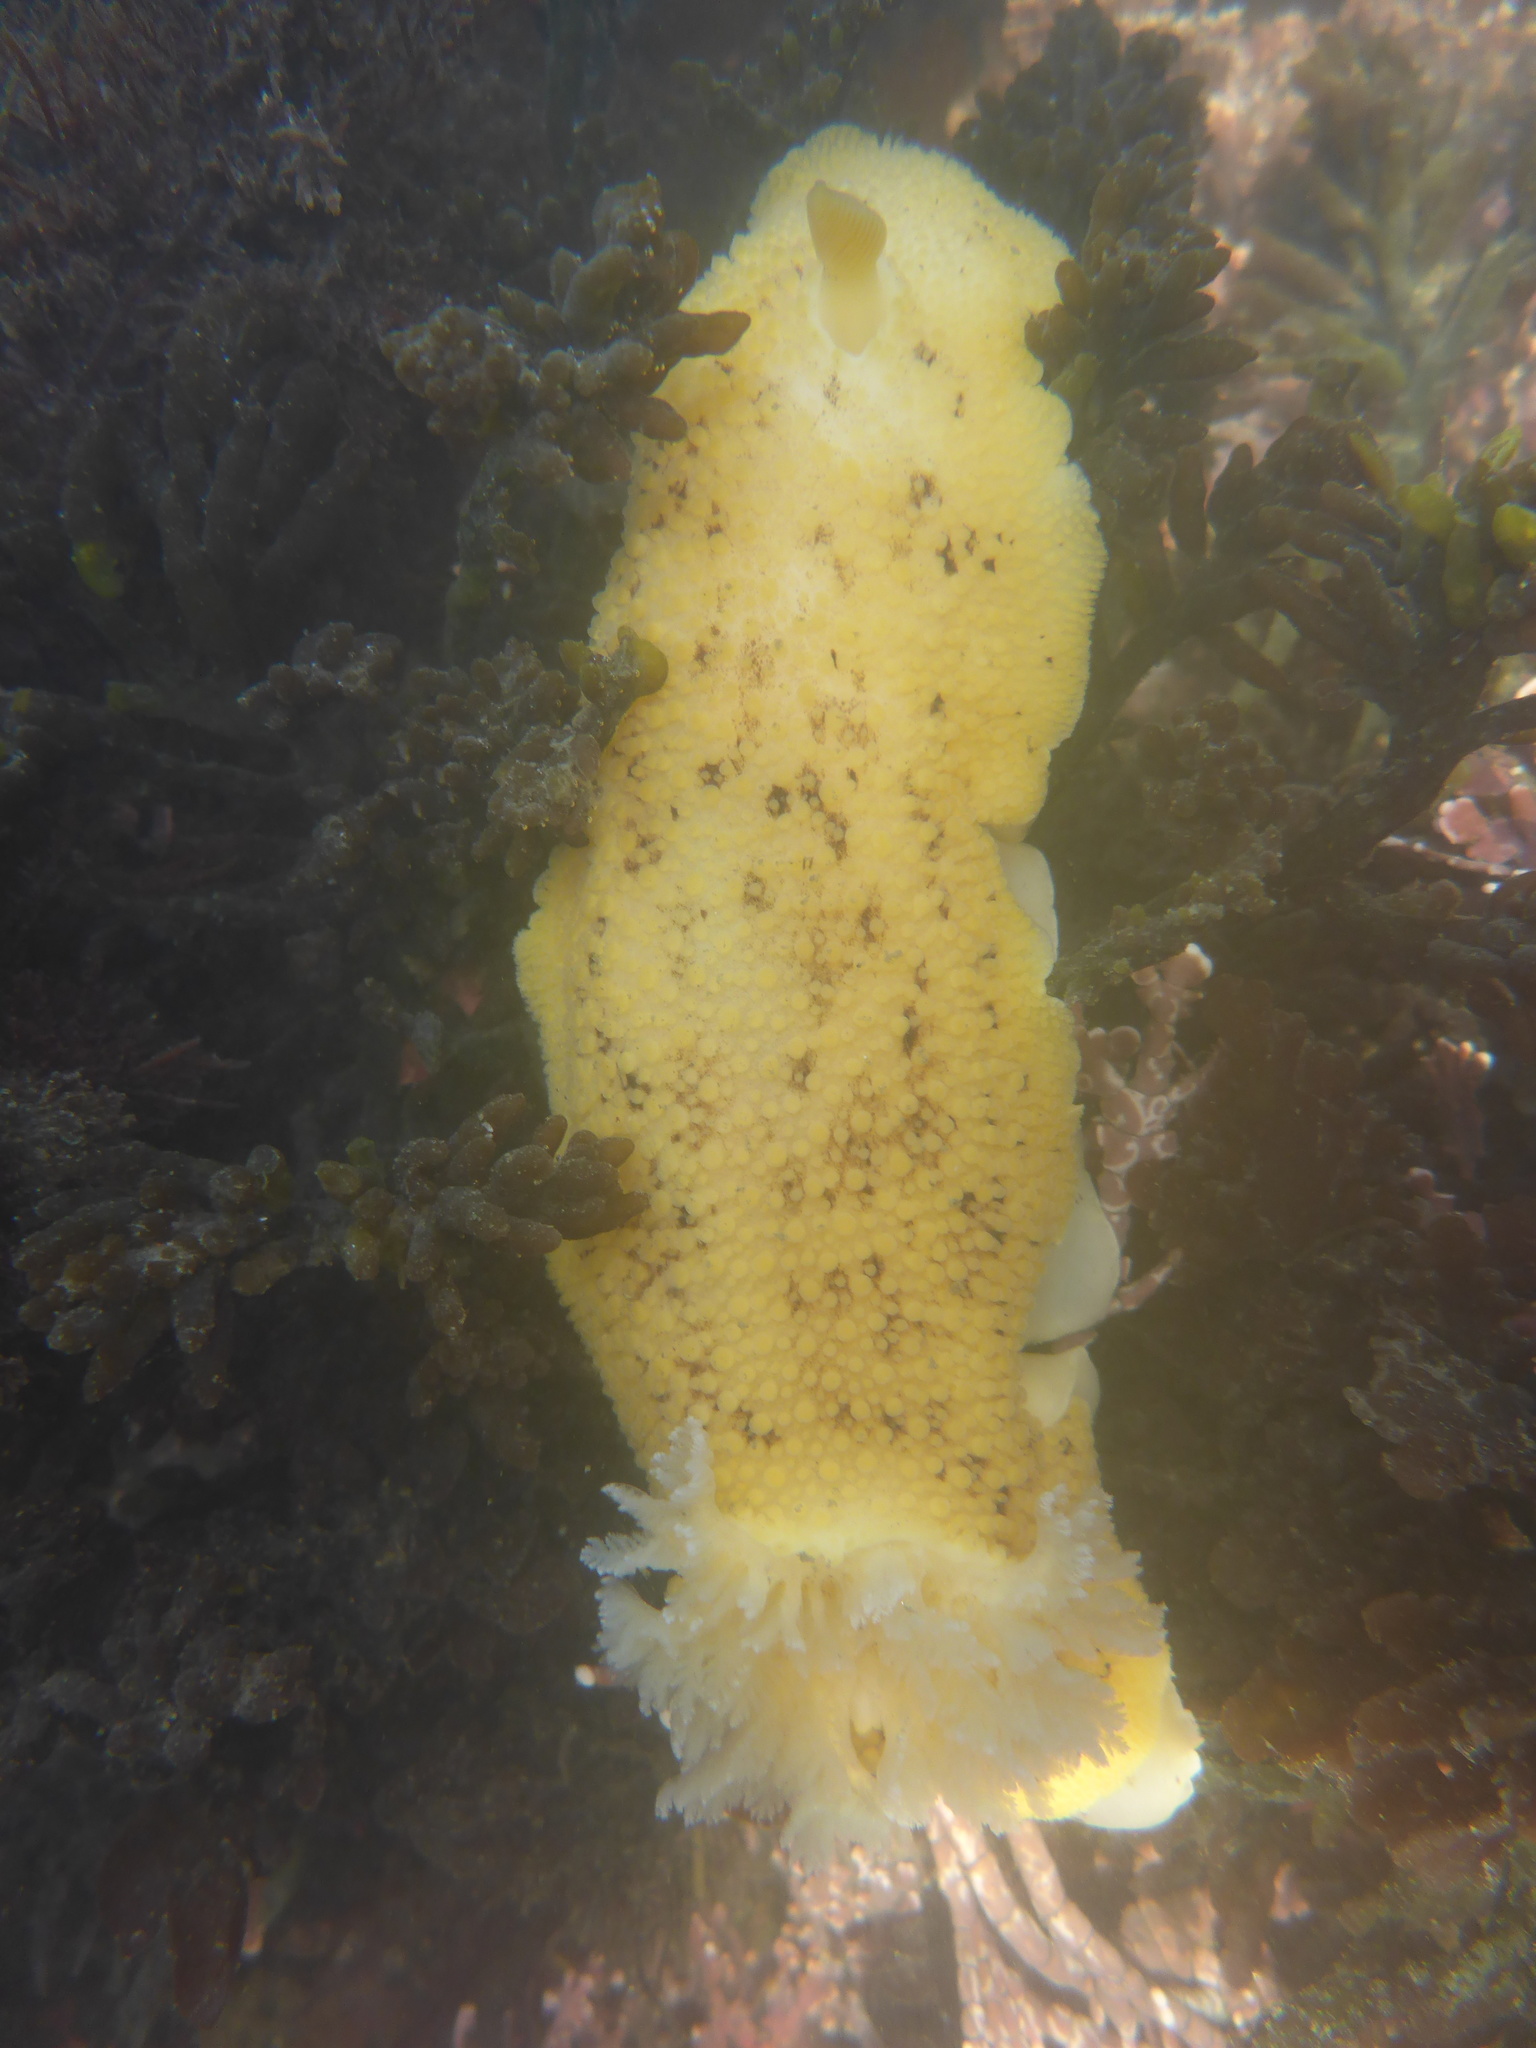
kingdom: Animalia
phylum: Mollusca
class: Gastropoda
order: Nudibranchia
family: Discodorididae
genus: Peltodoris
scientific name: Peltodoris nobilis
